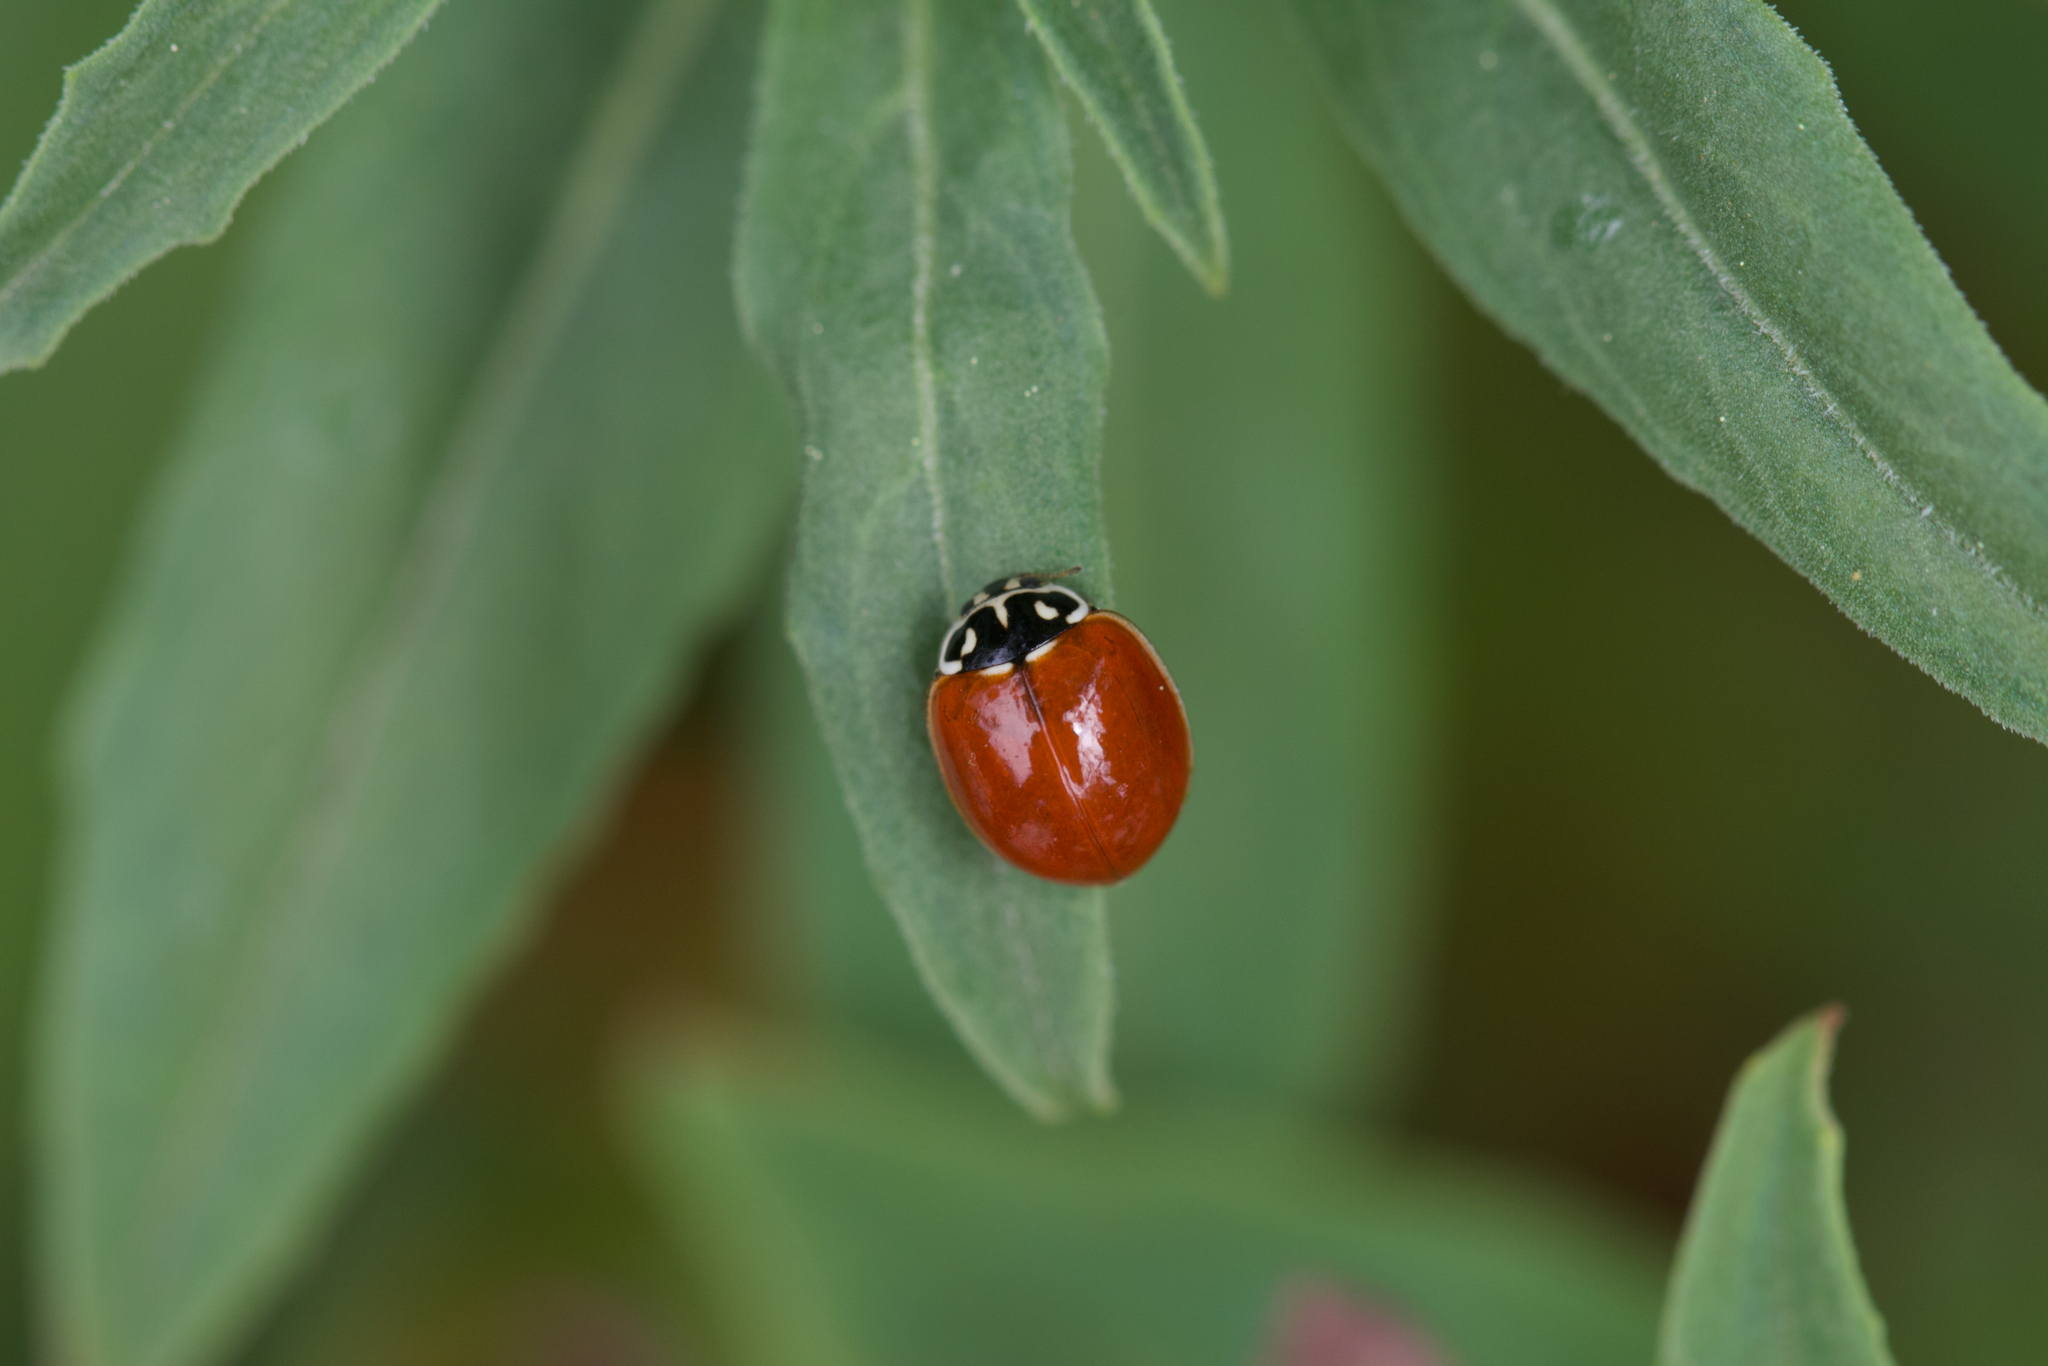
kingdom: Animalia
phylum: Arthropoda
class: Insecta
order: Coleoptera
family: Coccinellidae
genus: Cycloneda
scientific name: Cycloneda polita
